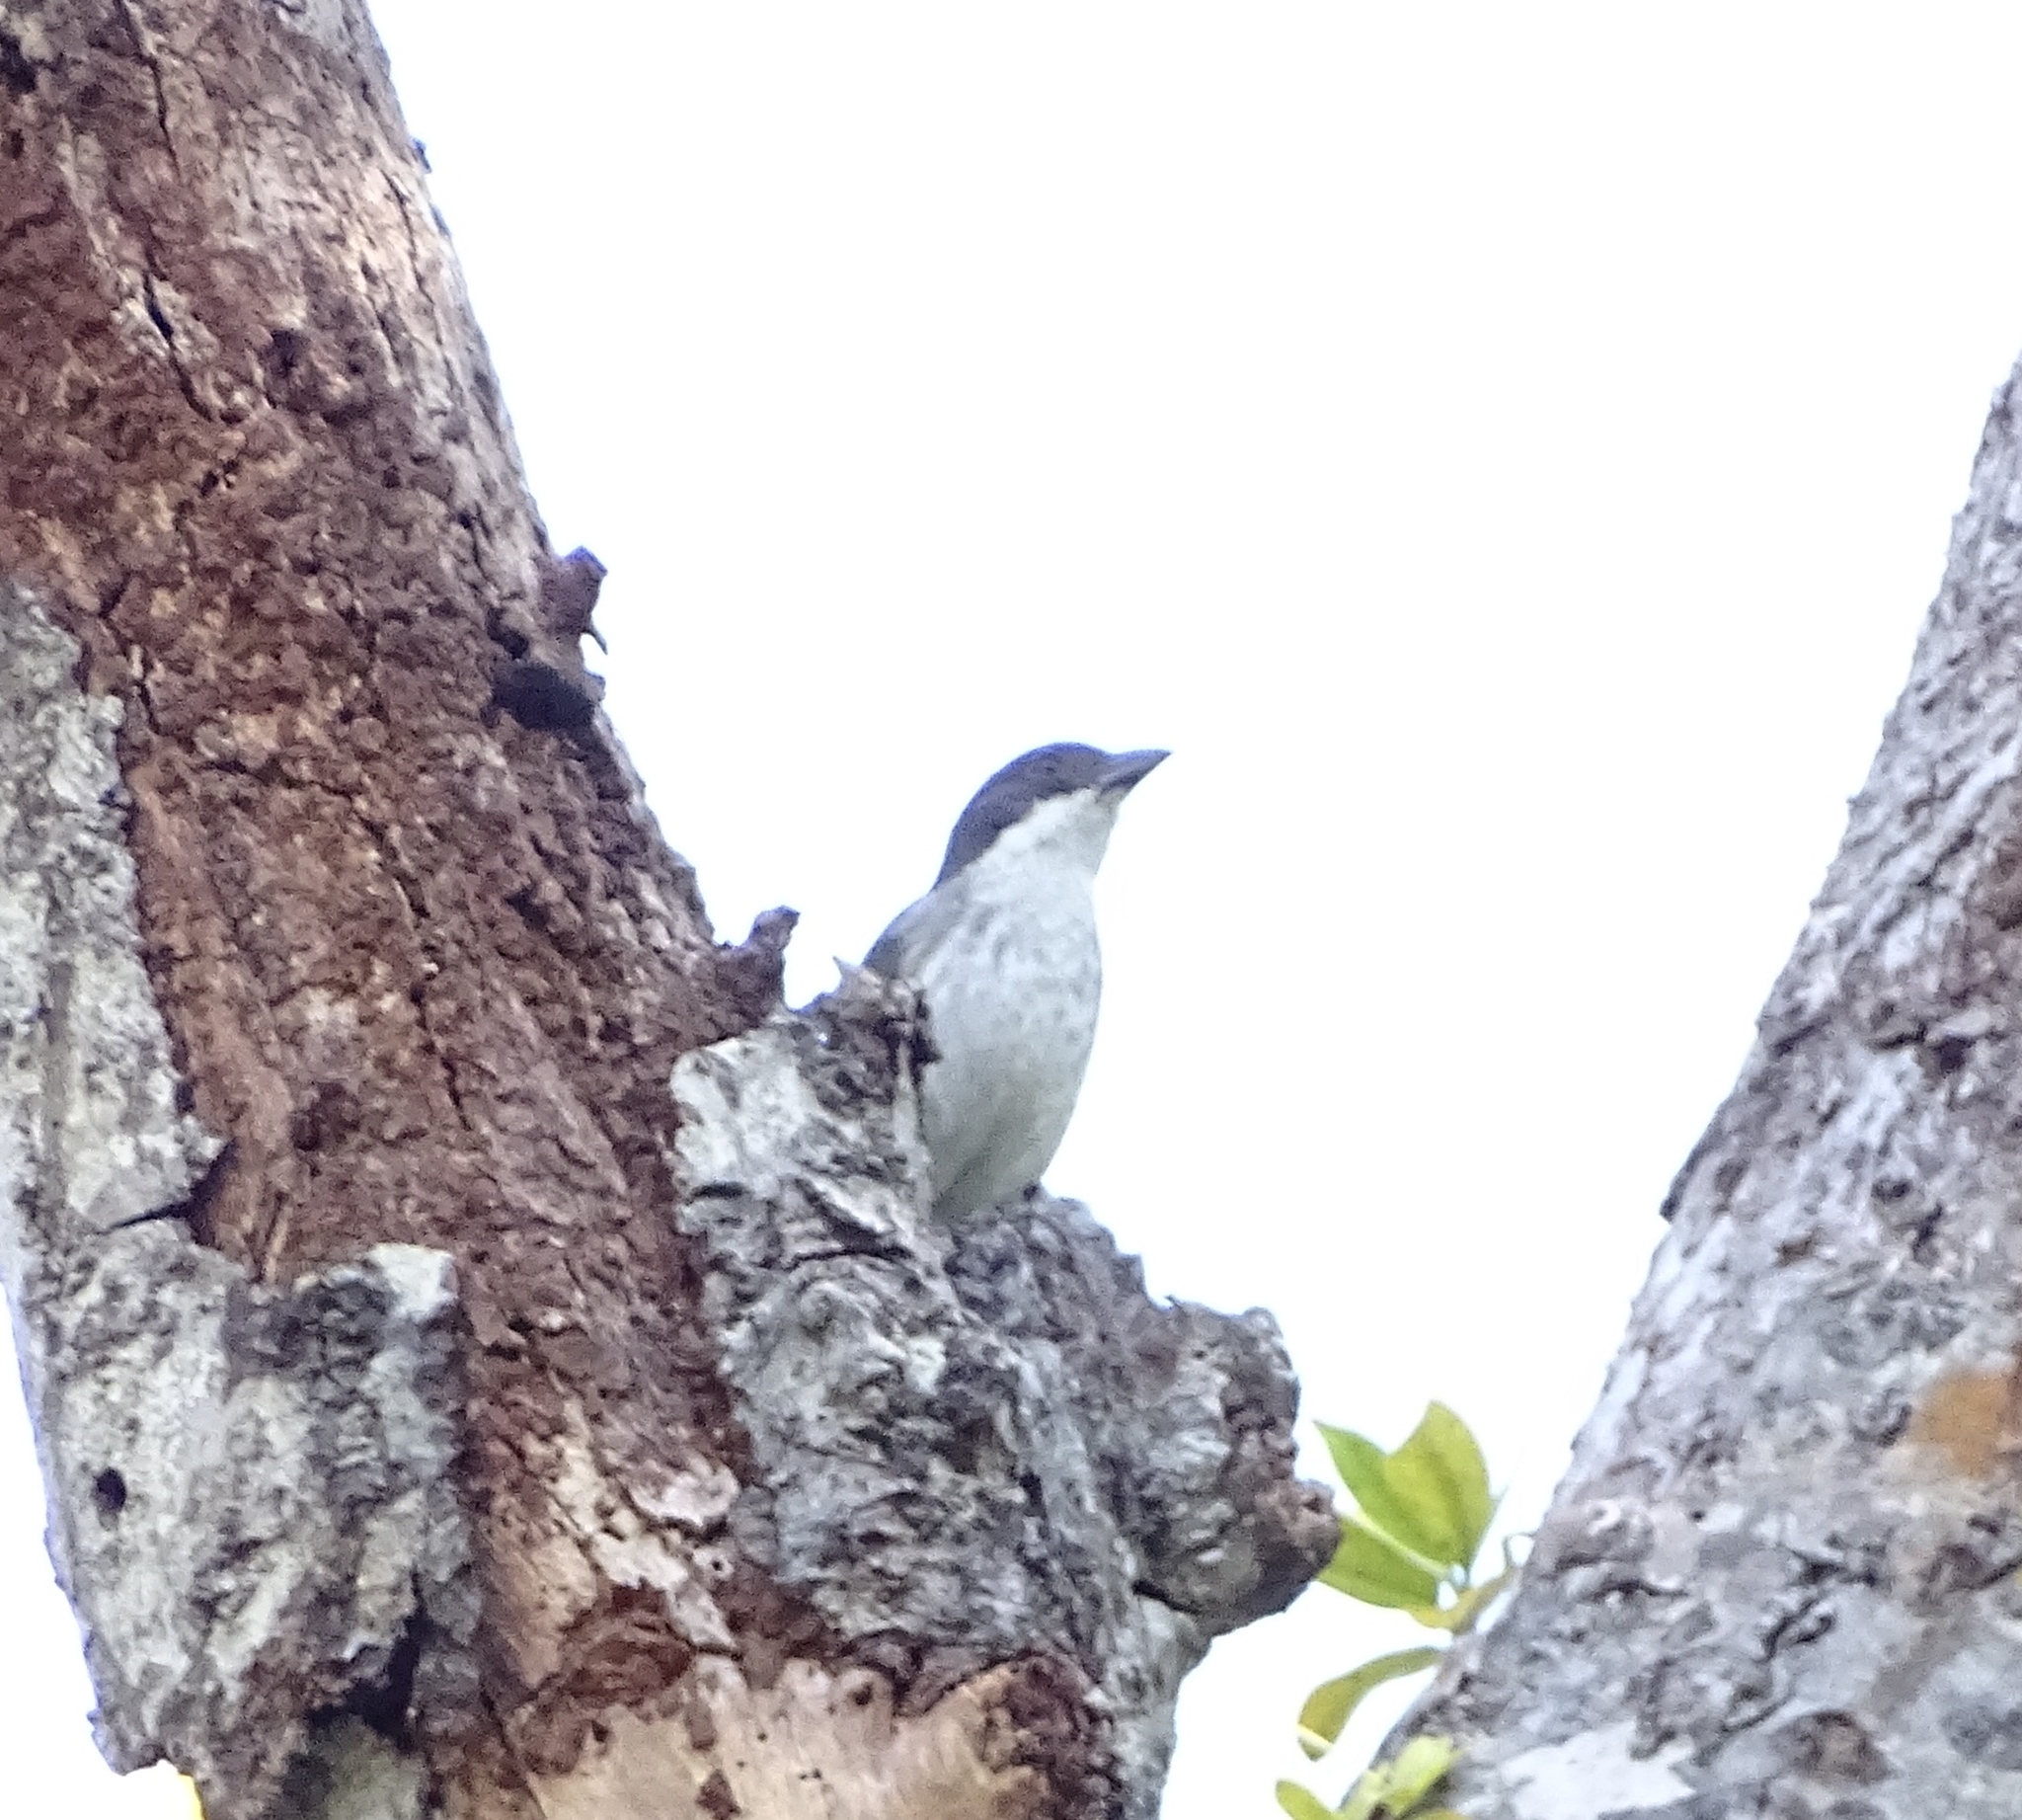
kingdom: Animalia
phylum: Chordata
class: Aves
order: Passeriformes
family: Nesospingidae
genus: Nesospingus
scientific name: Nesospingus speculiferus
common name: Puerto rican tanager
